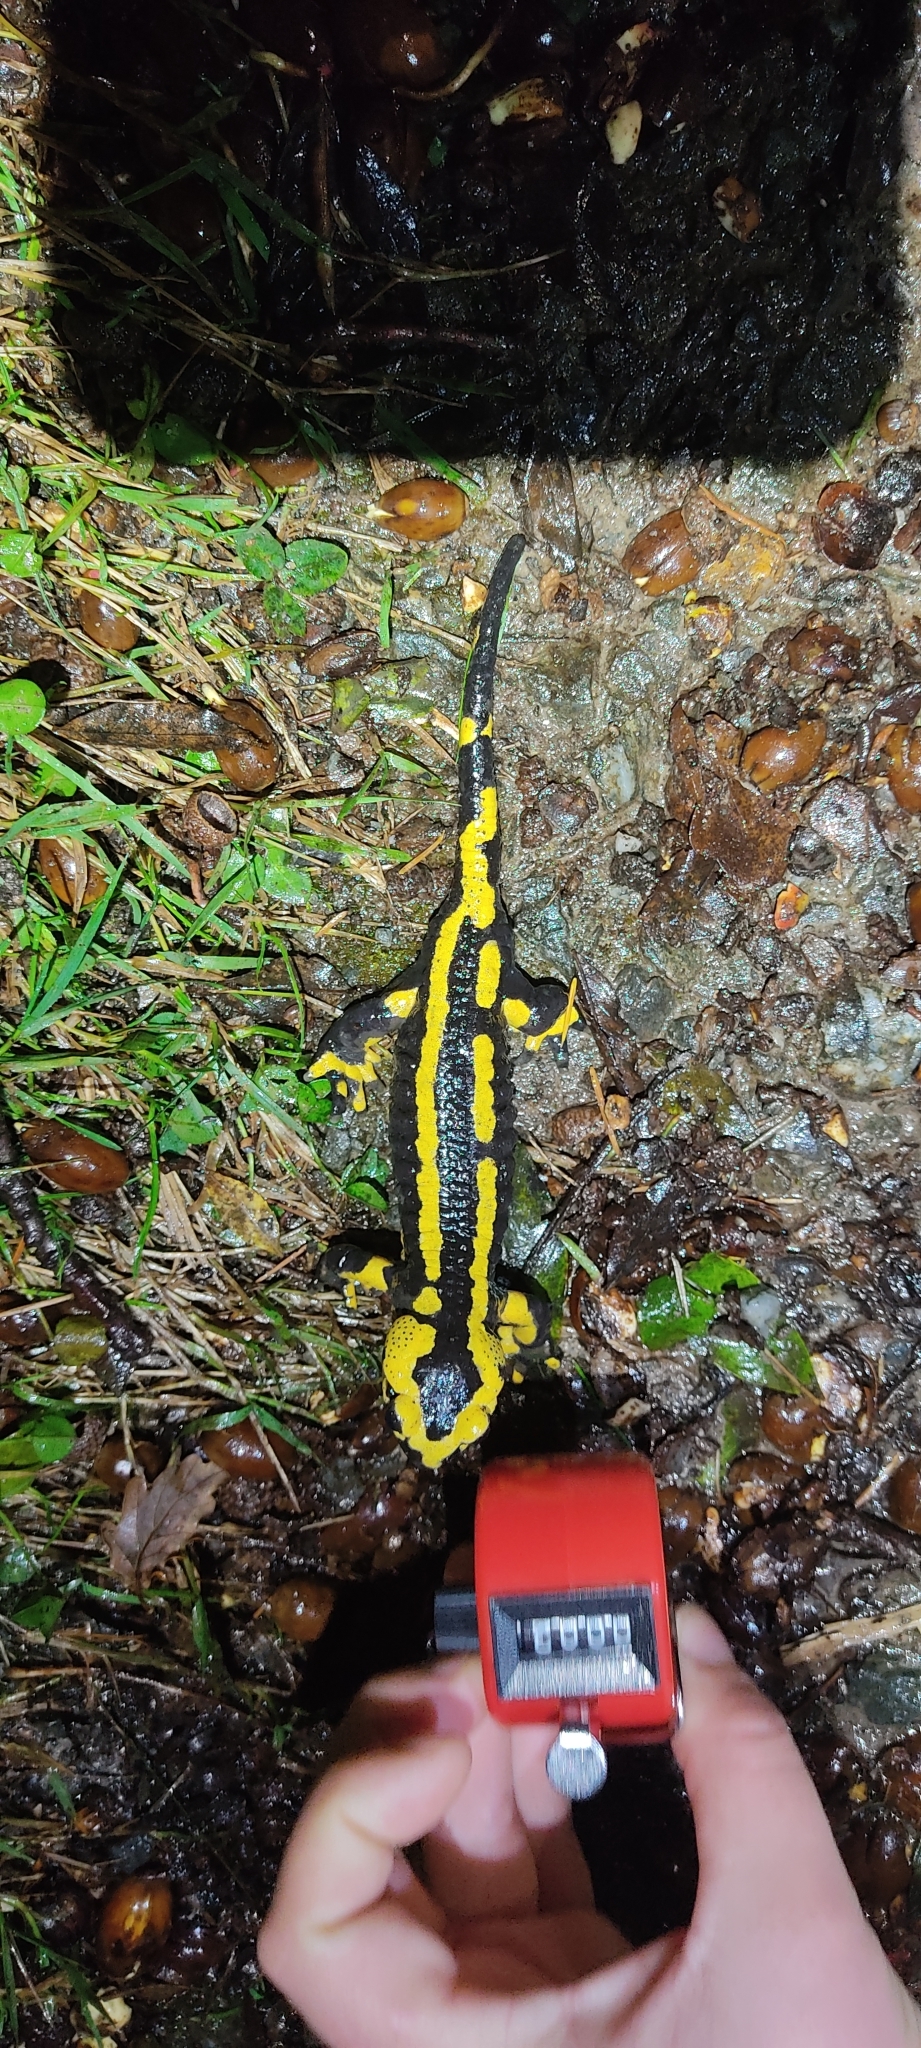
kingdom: Animalia
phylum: Chordata
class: Amphibia
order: Caudata
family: Salamandridae
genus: Salamandra
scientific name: Salamandra salamandra
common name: Fire salamander
